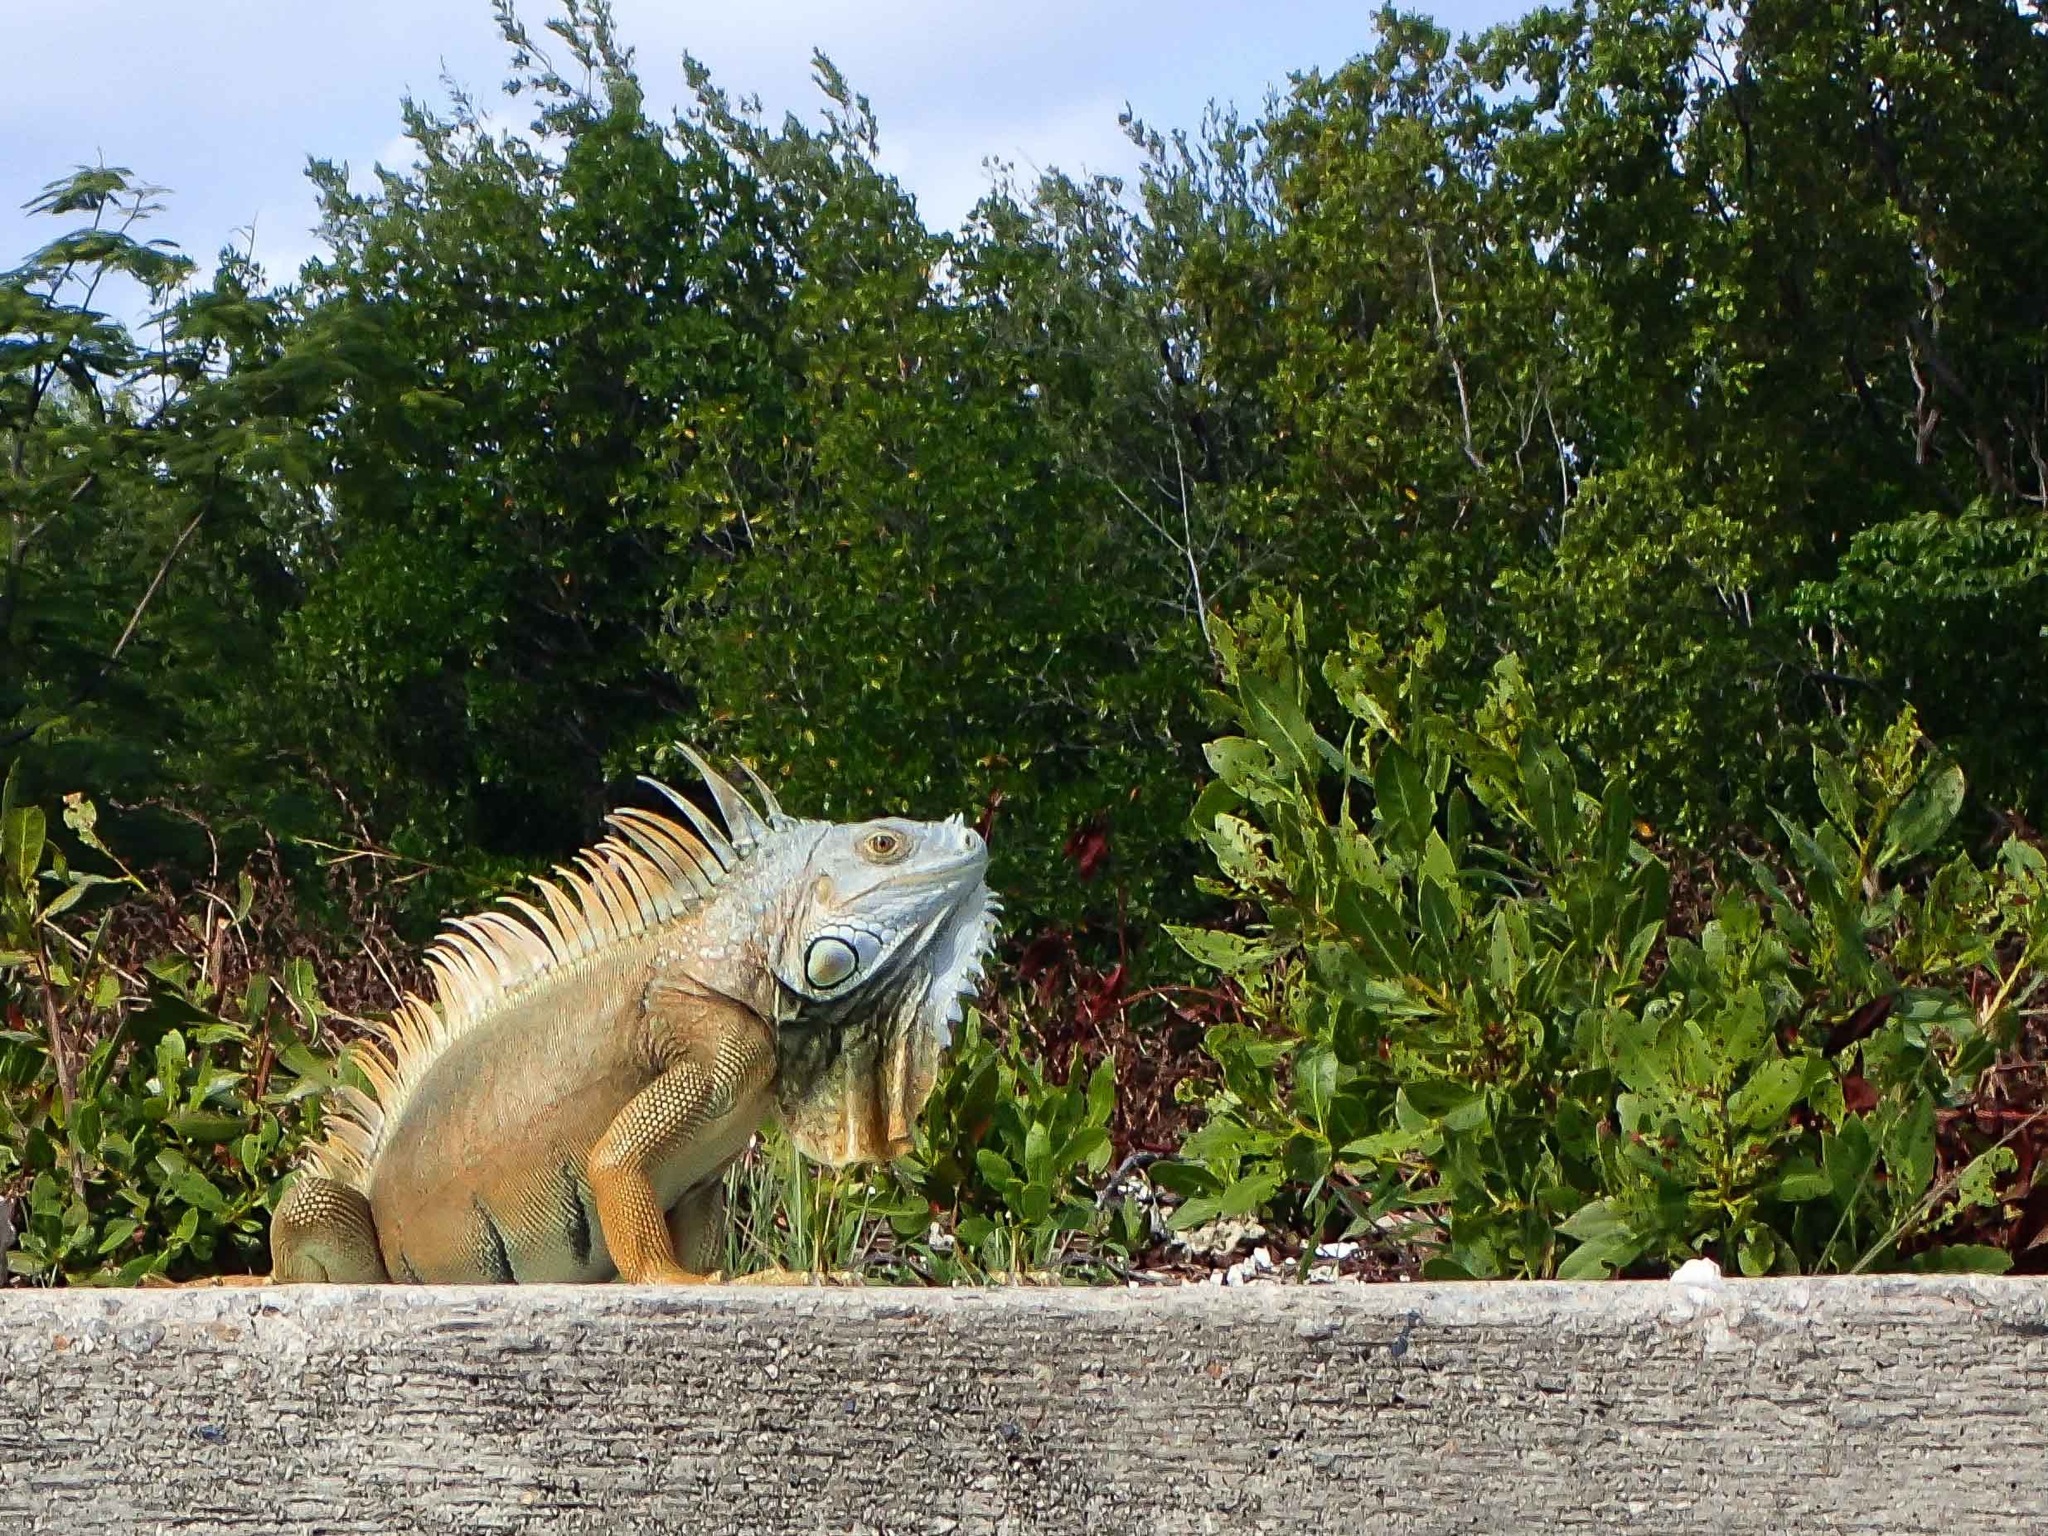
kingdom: Animalia
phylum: Chordata
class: Squamata
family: Iguanidae
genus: Iguana
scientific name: Iguana iguana
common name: Green iguana
